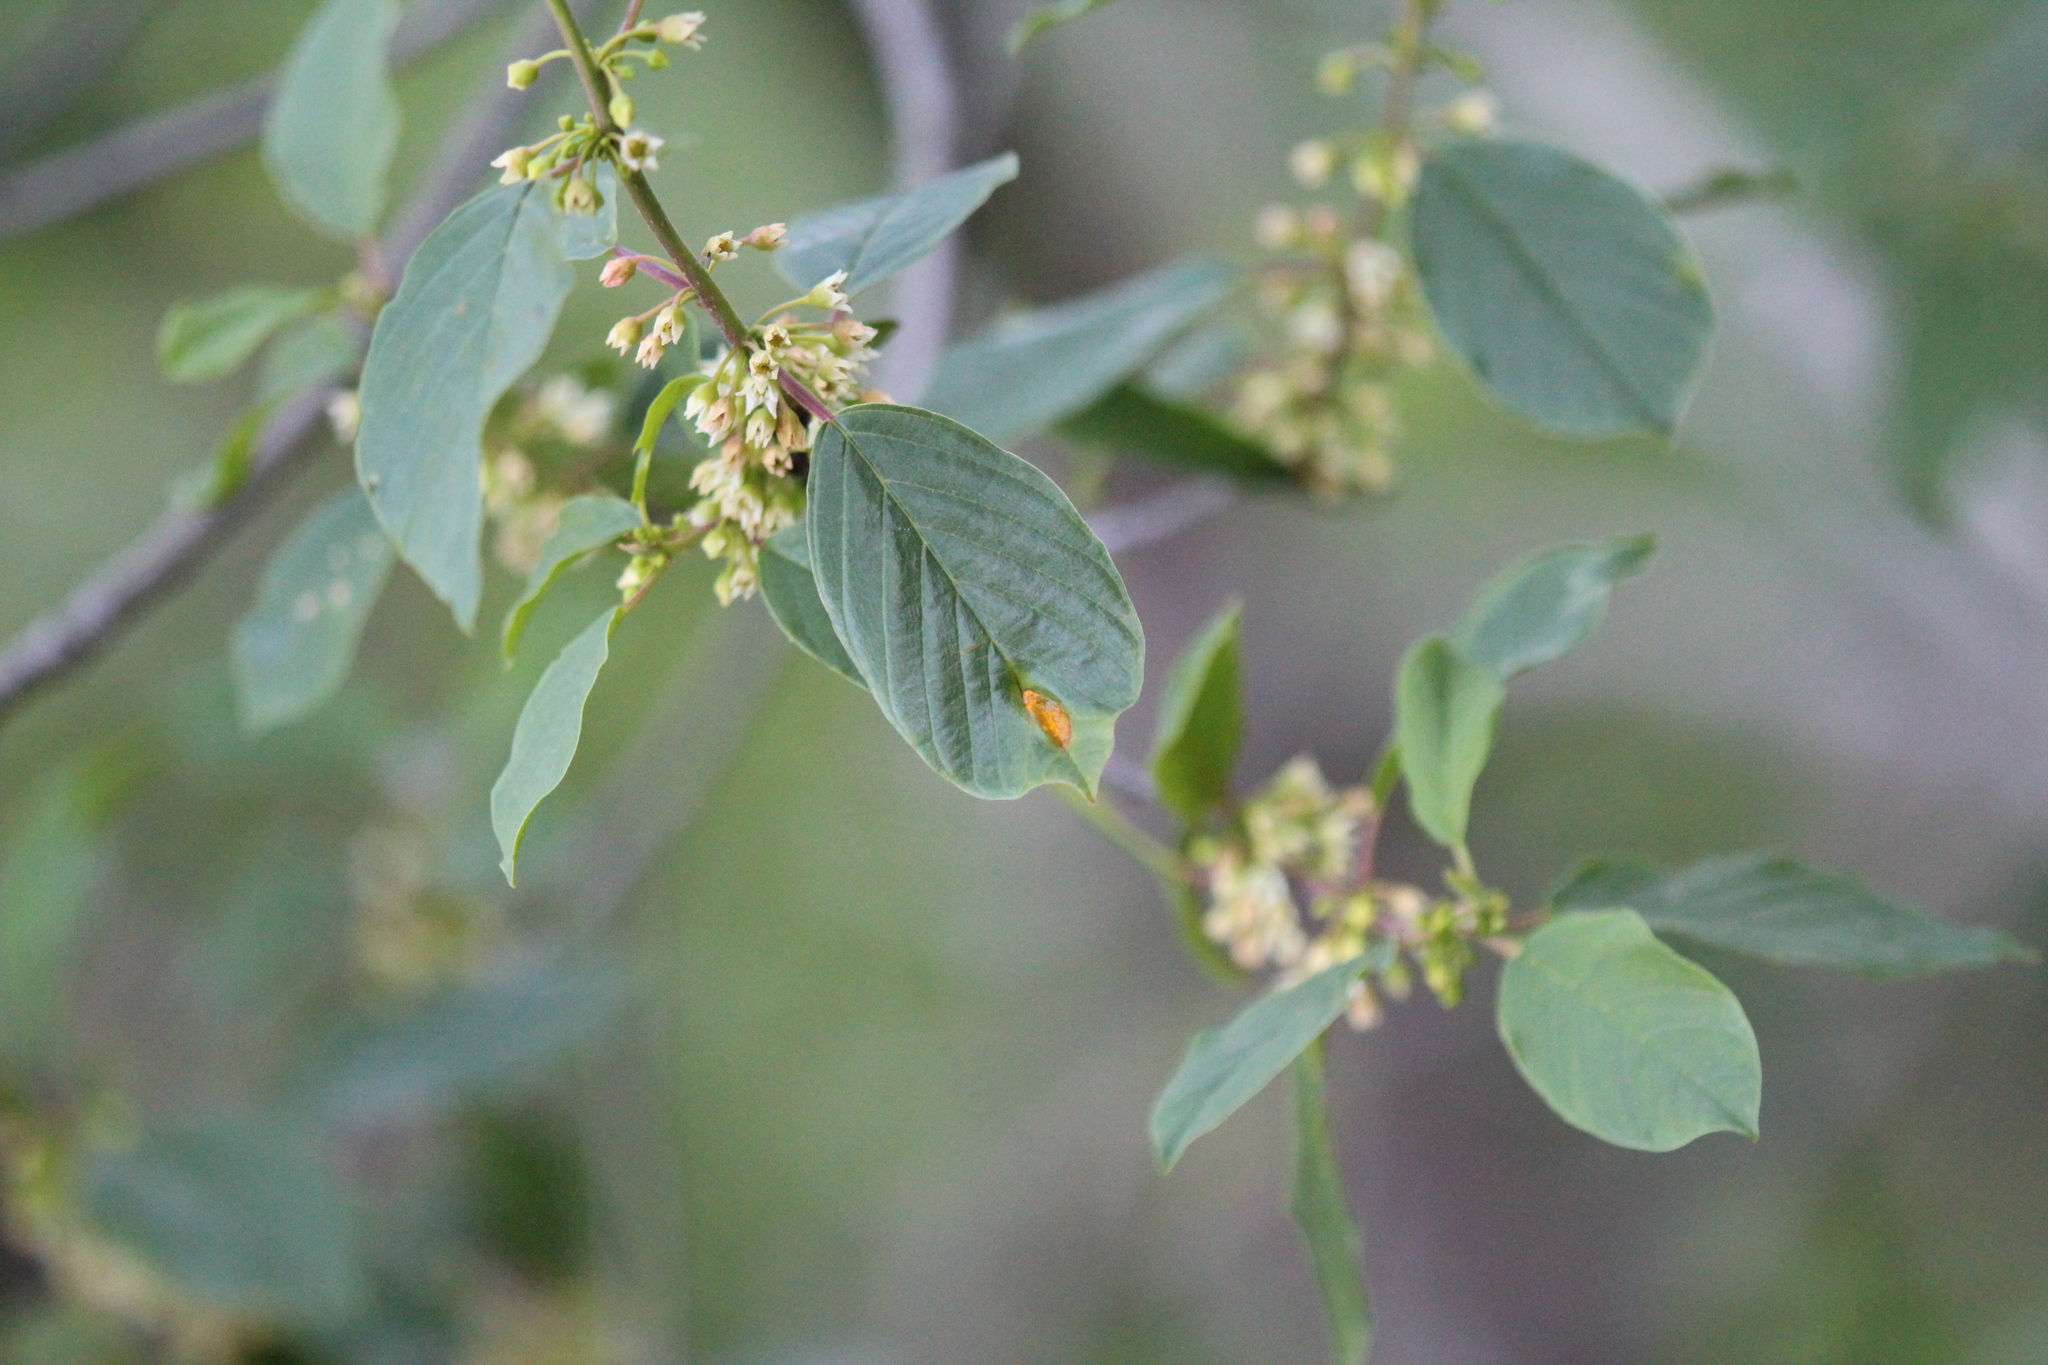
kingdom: Plantae
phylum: Tracheophyta
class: Magnoliopsida
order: Rosales
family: Rhamnaceae
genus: Frangula
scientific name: Frangula alnus
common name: Alder buckthorn
